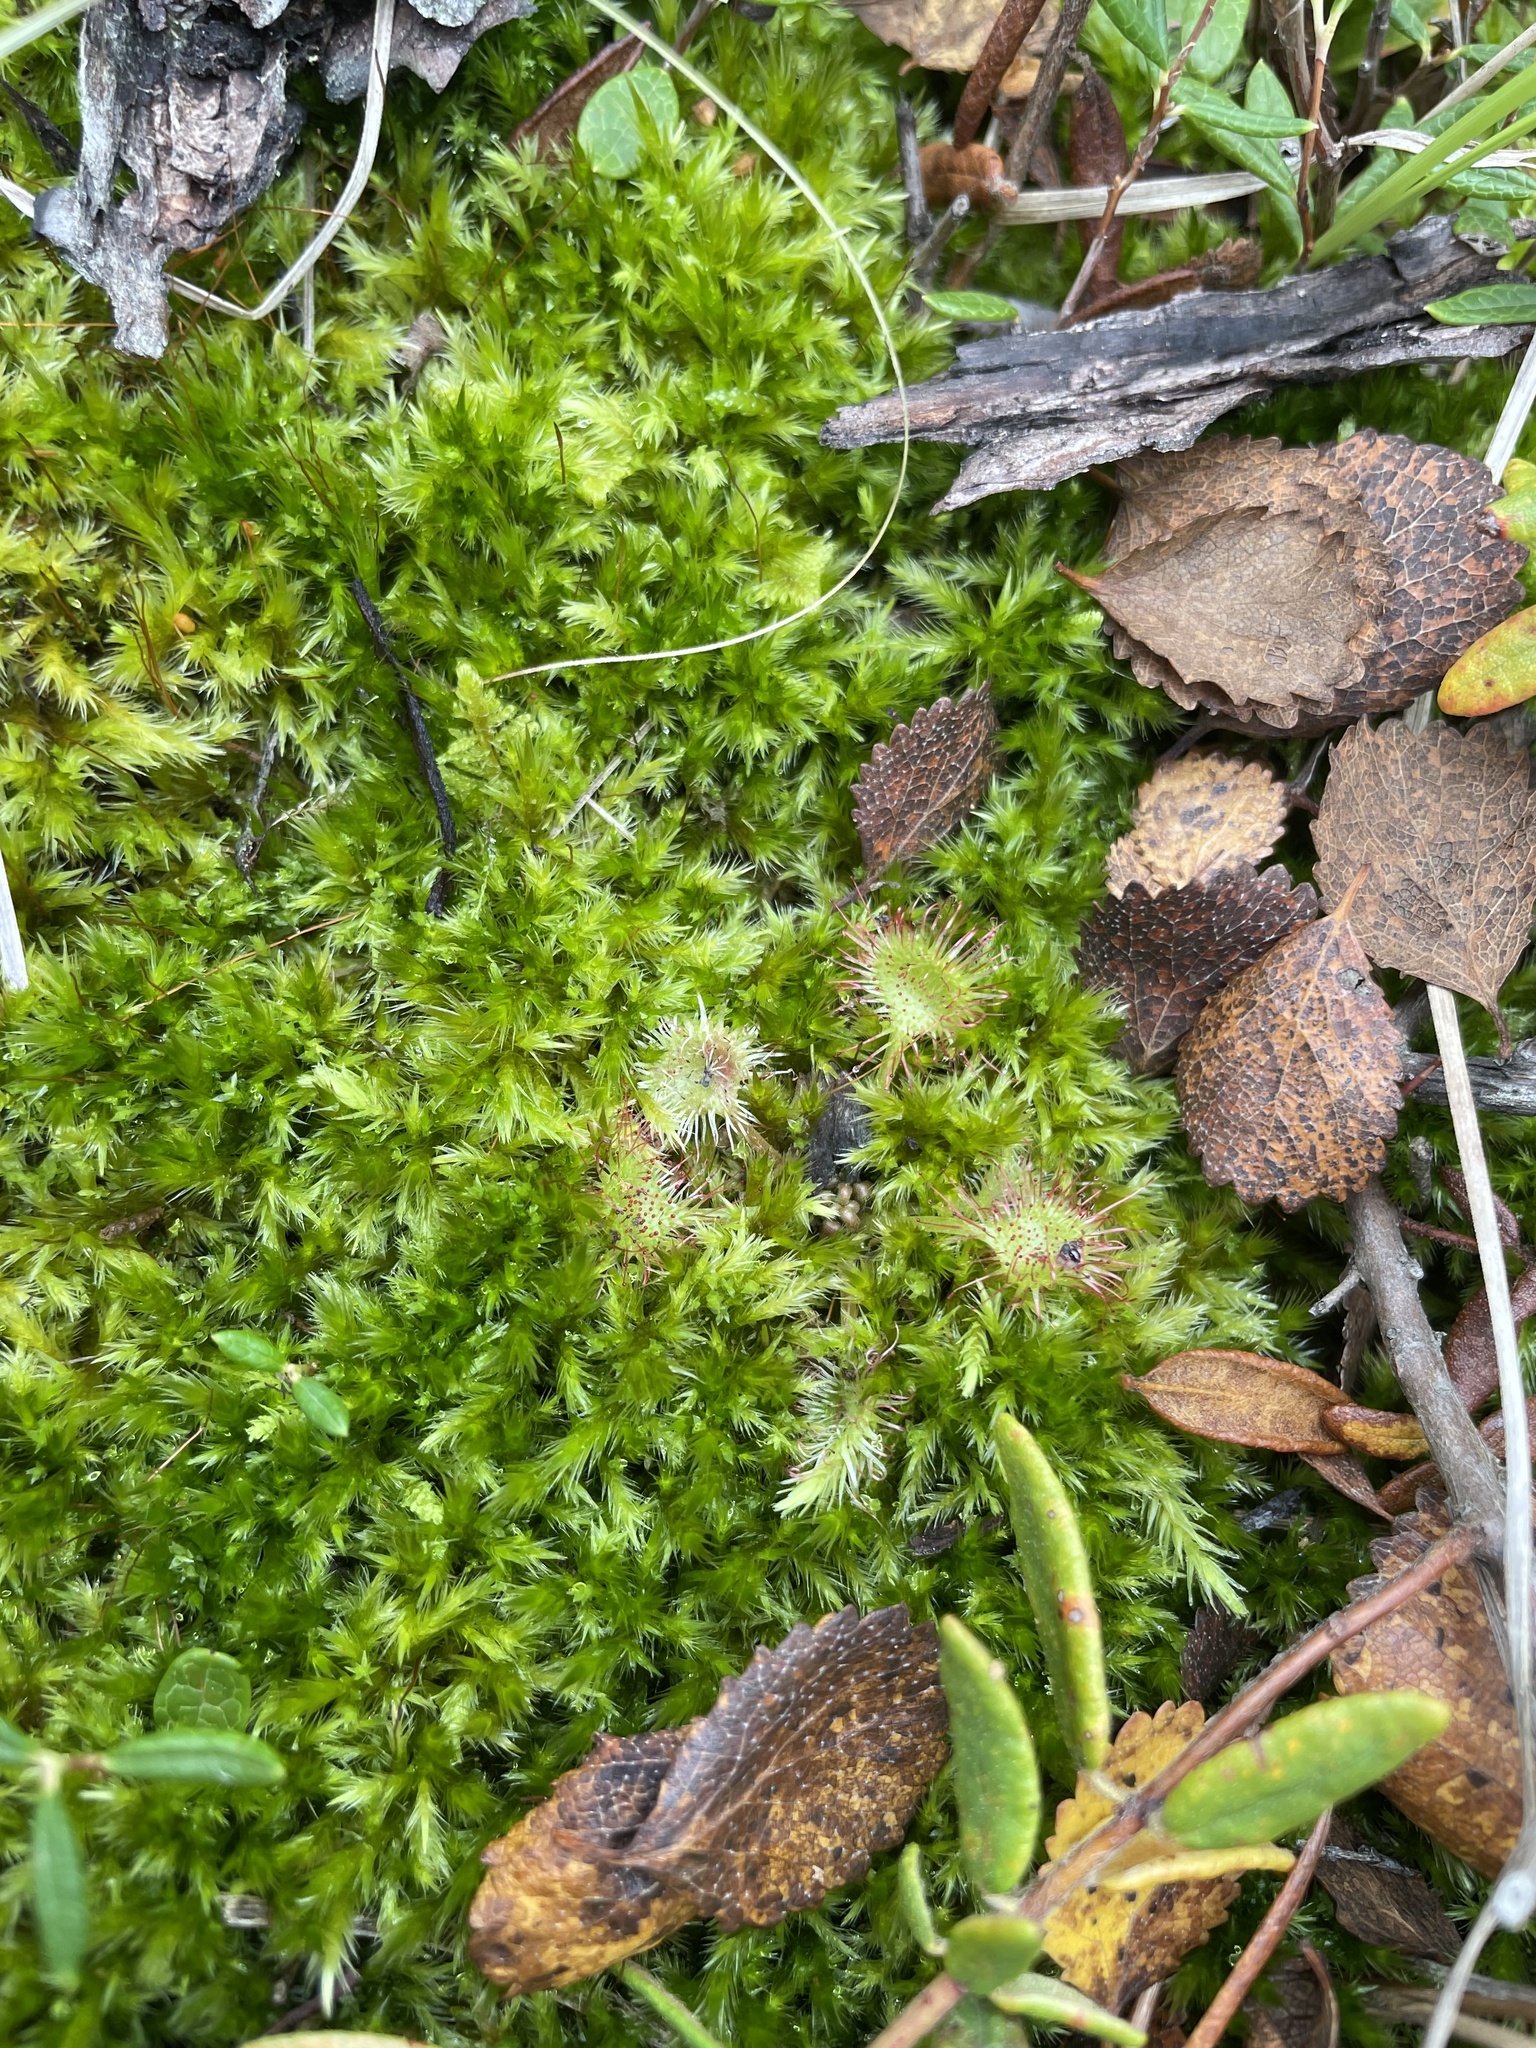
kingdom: Plantae
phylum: Tracheophyta
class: Magnoliopsida
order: Caryophyllales
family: Droseraceae
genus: Drosera
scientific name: Drosera rotundifolia
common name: Round-leaved sundew
